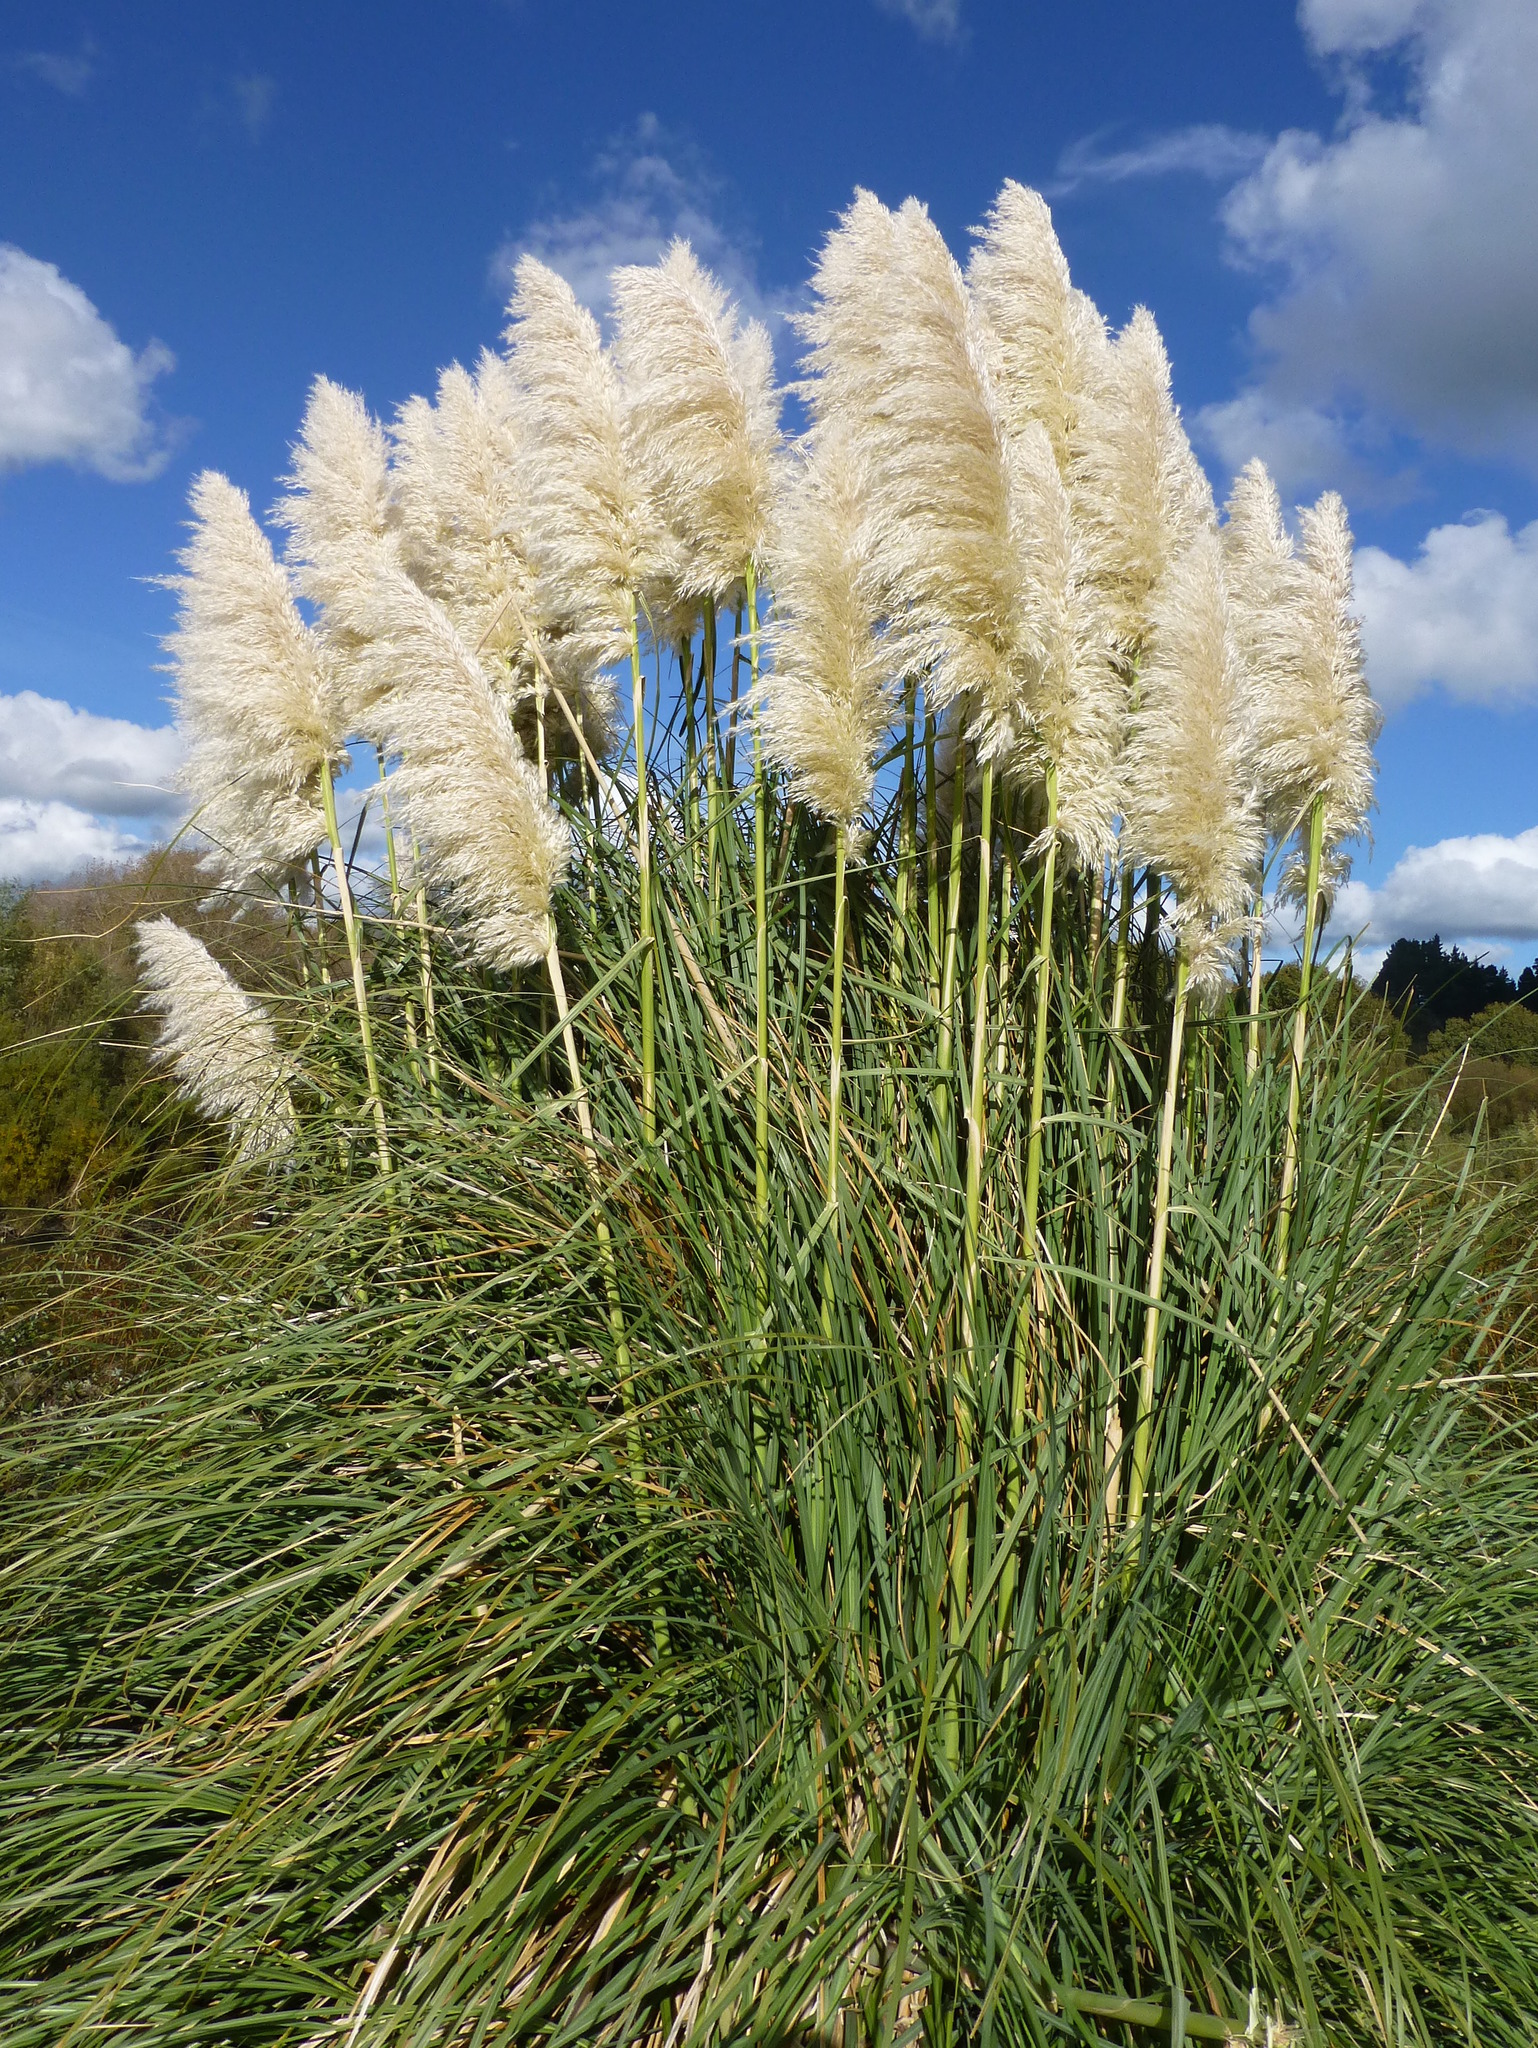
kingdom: Plantae
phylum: Tracheophyta
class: Liliopsida
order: Poales
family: Poaceae
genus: Cortaderia
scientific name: Cortaderia selloana
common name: Uruguayan pampas grass
